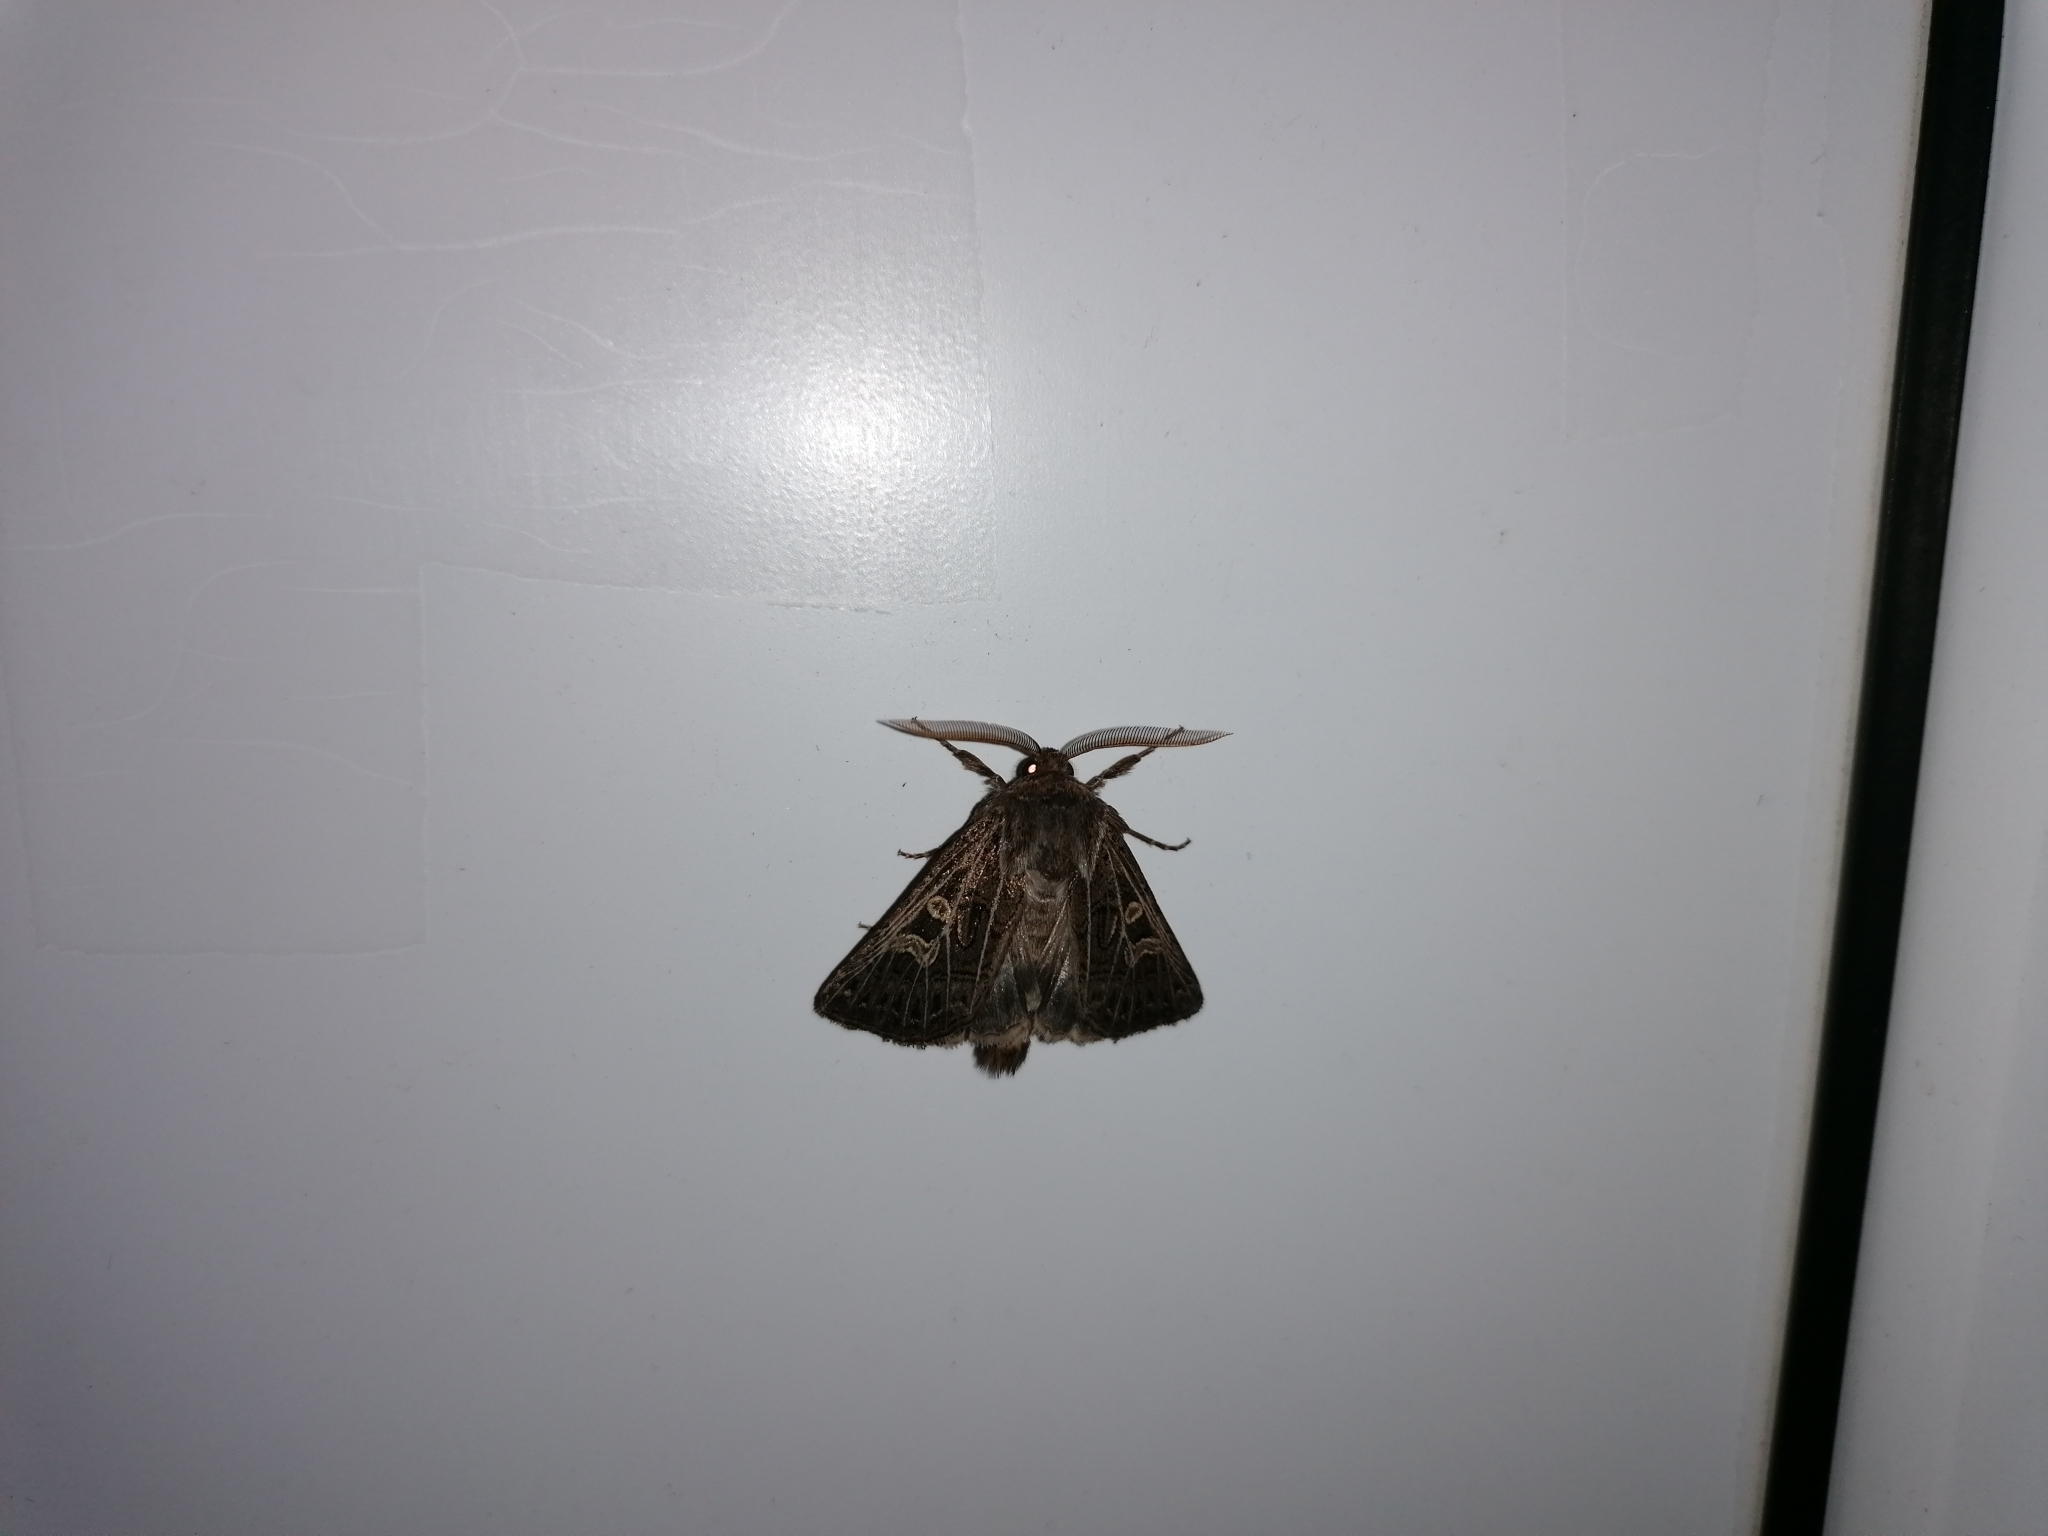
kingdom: Animalia
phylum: Arthropoda
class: Insecta
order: Lepidoptera
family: Noctuidae
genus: Tholera
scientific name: Tholera decimalis
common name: Feathered gothic
